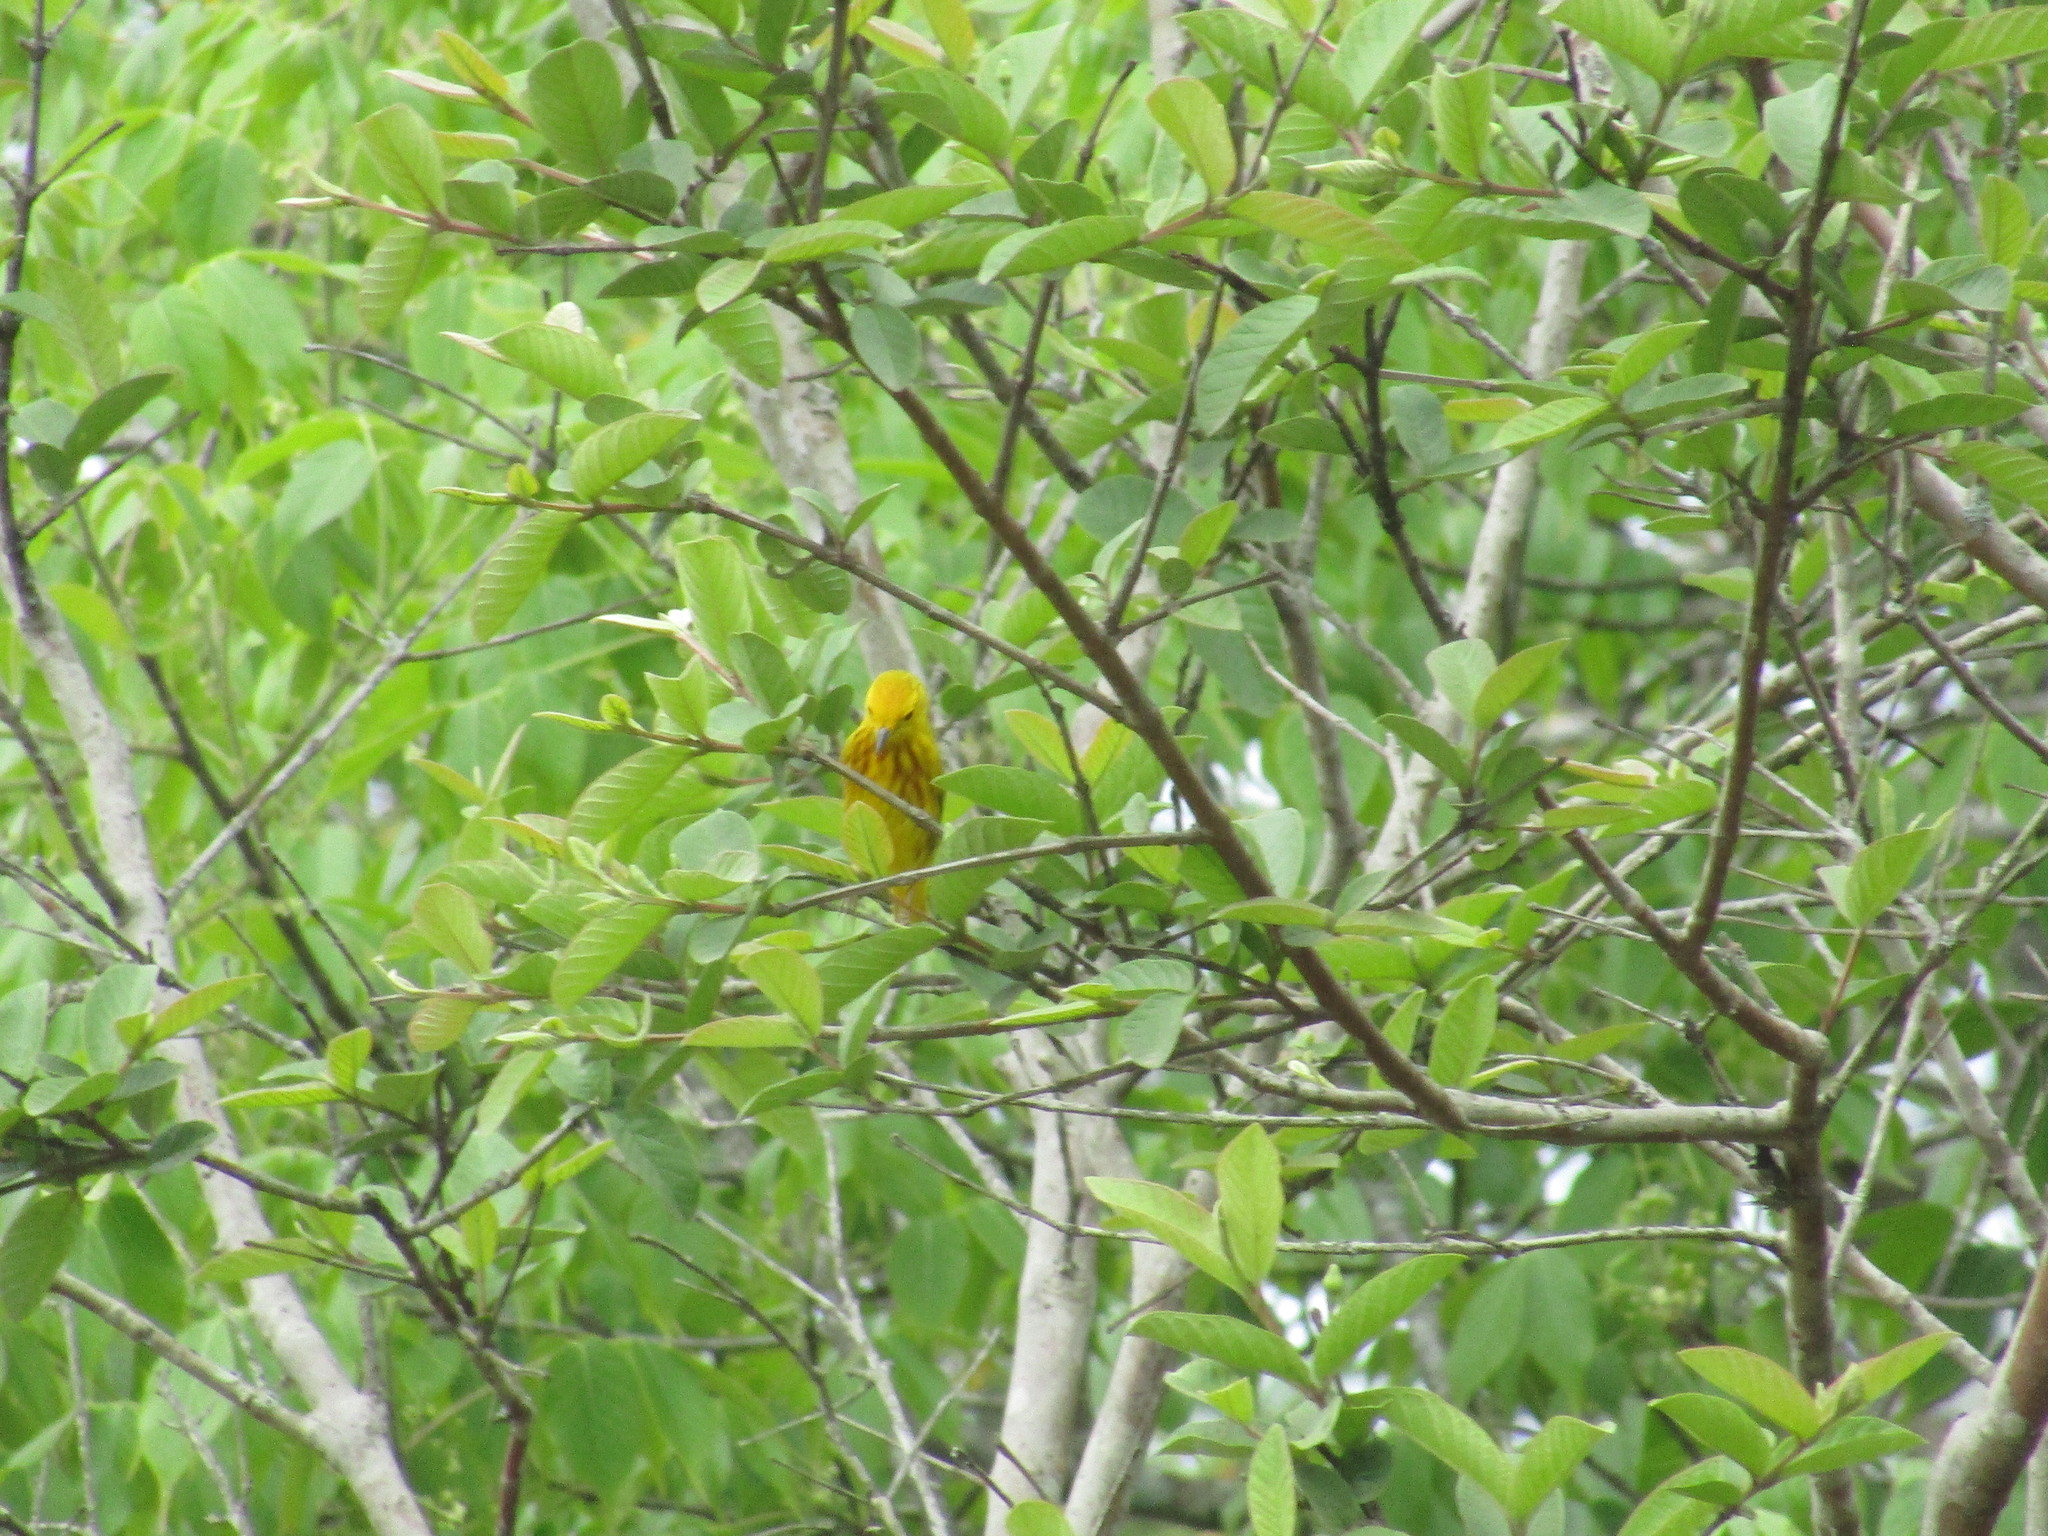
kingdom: Animalia
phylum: Chordata
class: Aves
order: Passeriformes
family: Parulidae
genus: Setophaga
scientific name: Setophaga petechia
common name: Yellow warbler
